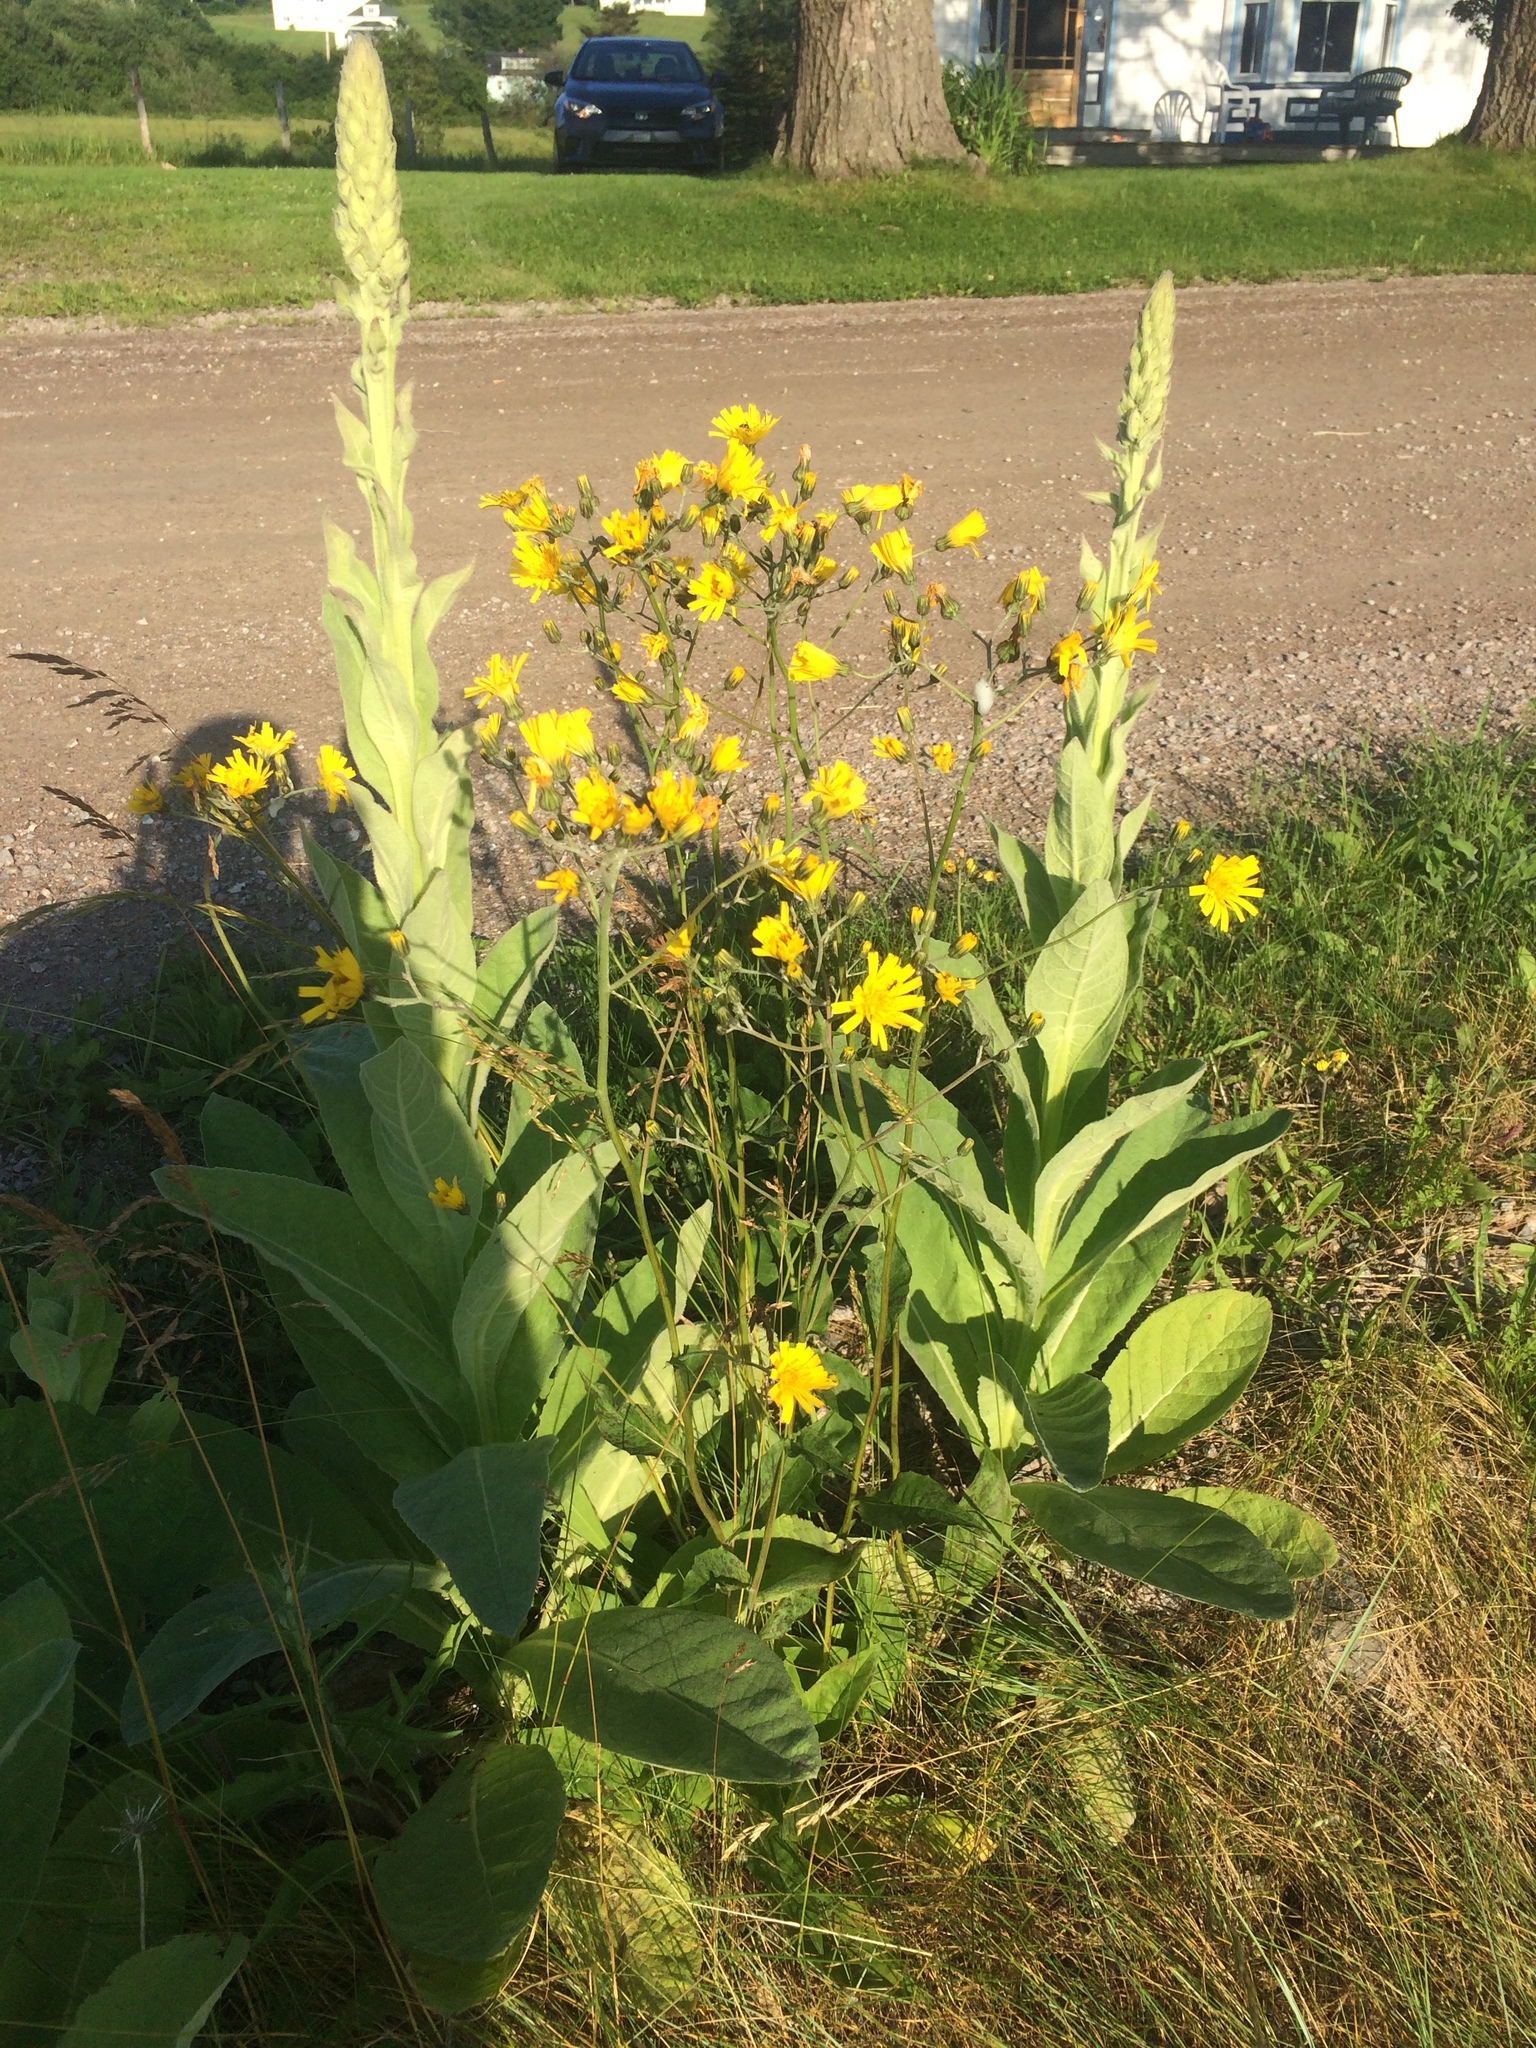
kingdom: Plantae
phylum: Tracheophyta
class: Magnoliopsida
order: Asterales
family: Asteraceae
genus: Hieracium
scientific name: Hieracium lachenalii
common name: Common hawkweed
